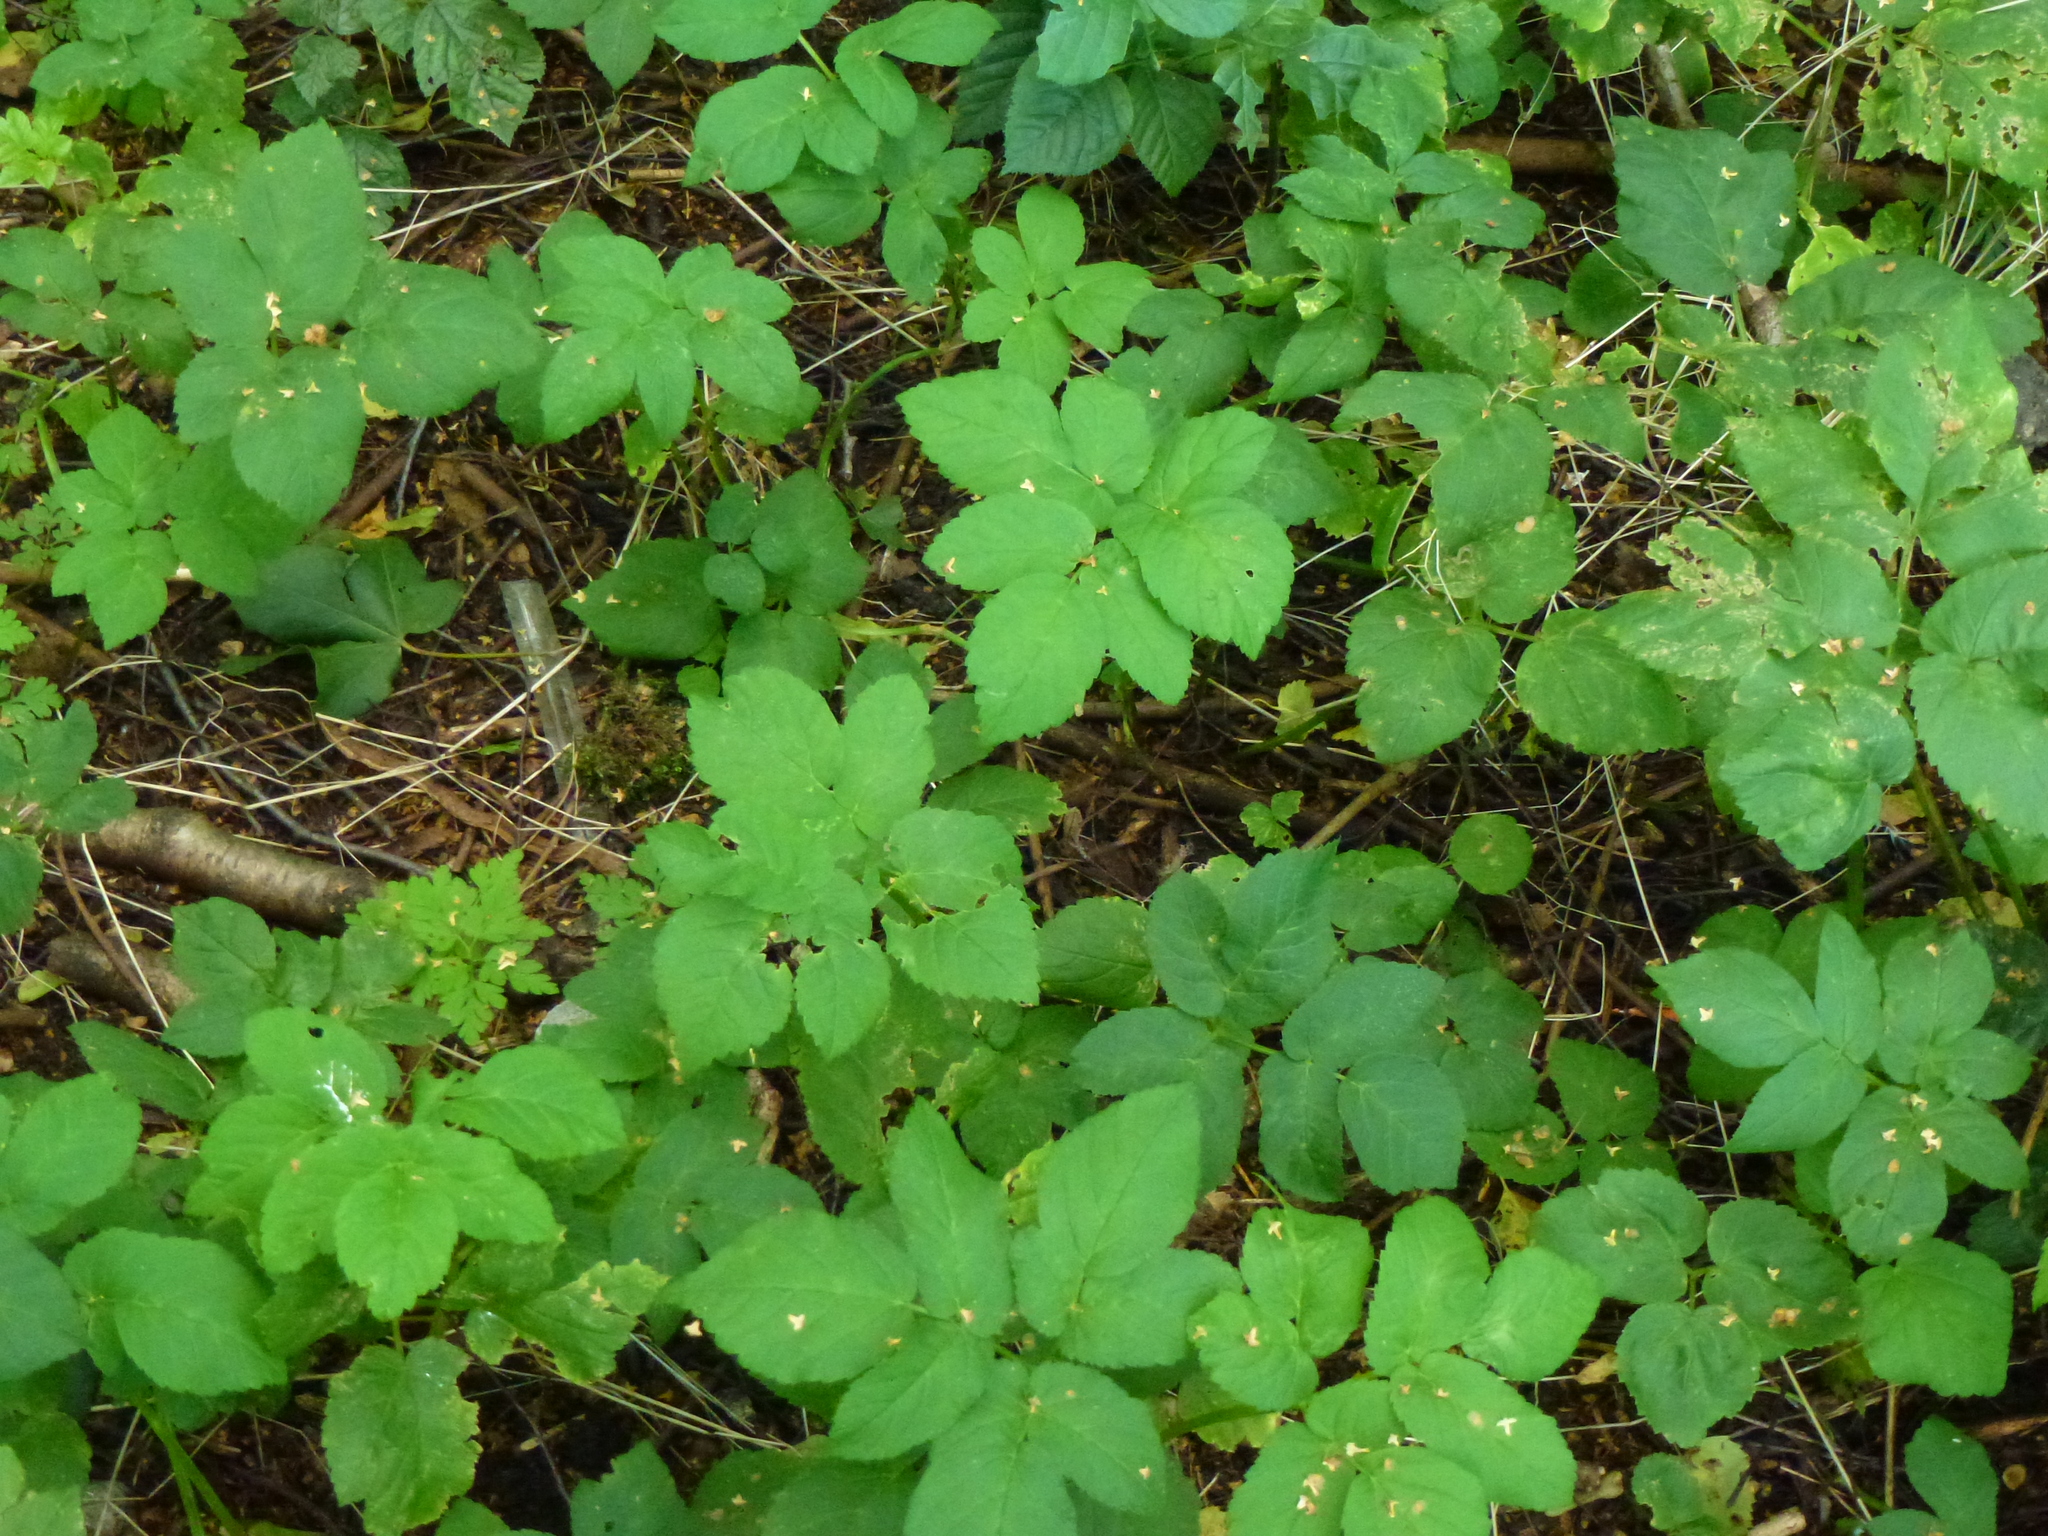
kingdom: Plantae
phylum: Tracheophyta
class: Magnoliopsida
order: Apiales
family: Apiaceae
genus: Aegopodium
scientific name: Aegopodium podagraria
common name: Ground-elder
